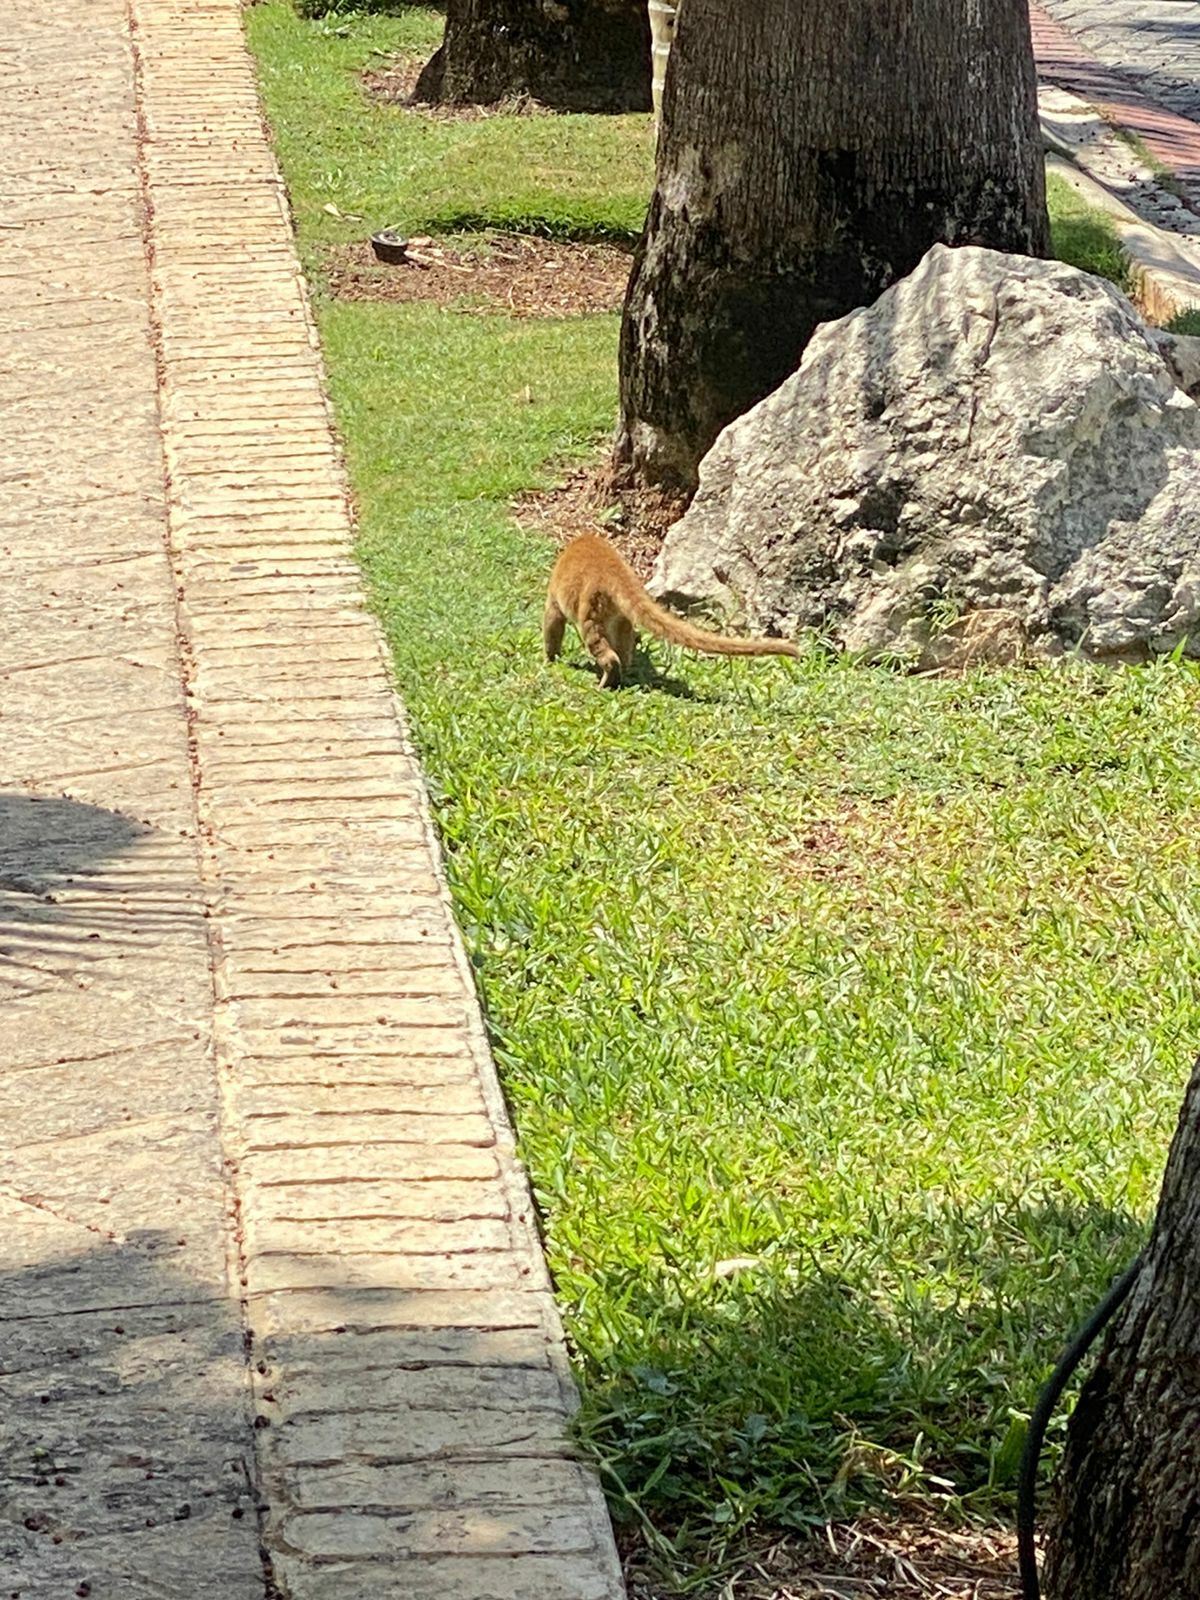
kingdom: Animalia
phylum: Chordata
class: Mammalia
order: Carnivora
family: Procyonidae
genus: Nasua
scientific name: Nasua narica
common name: White-nosed coati
